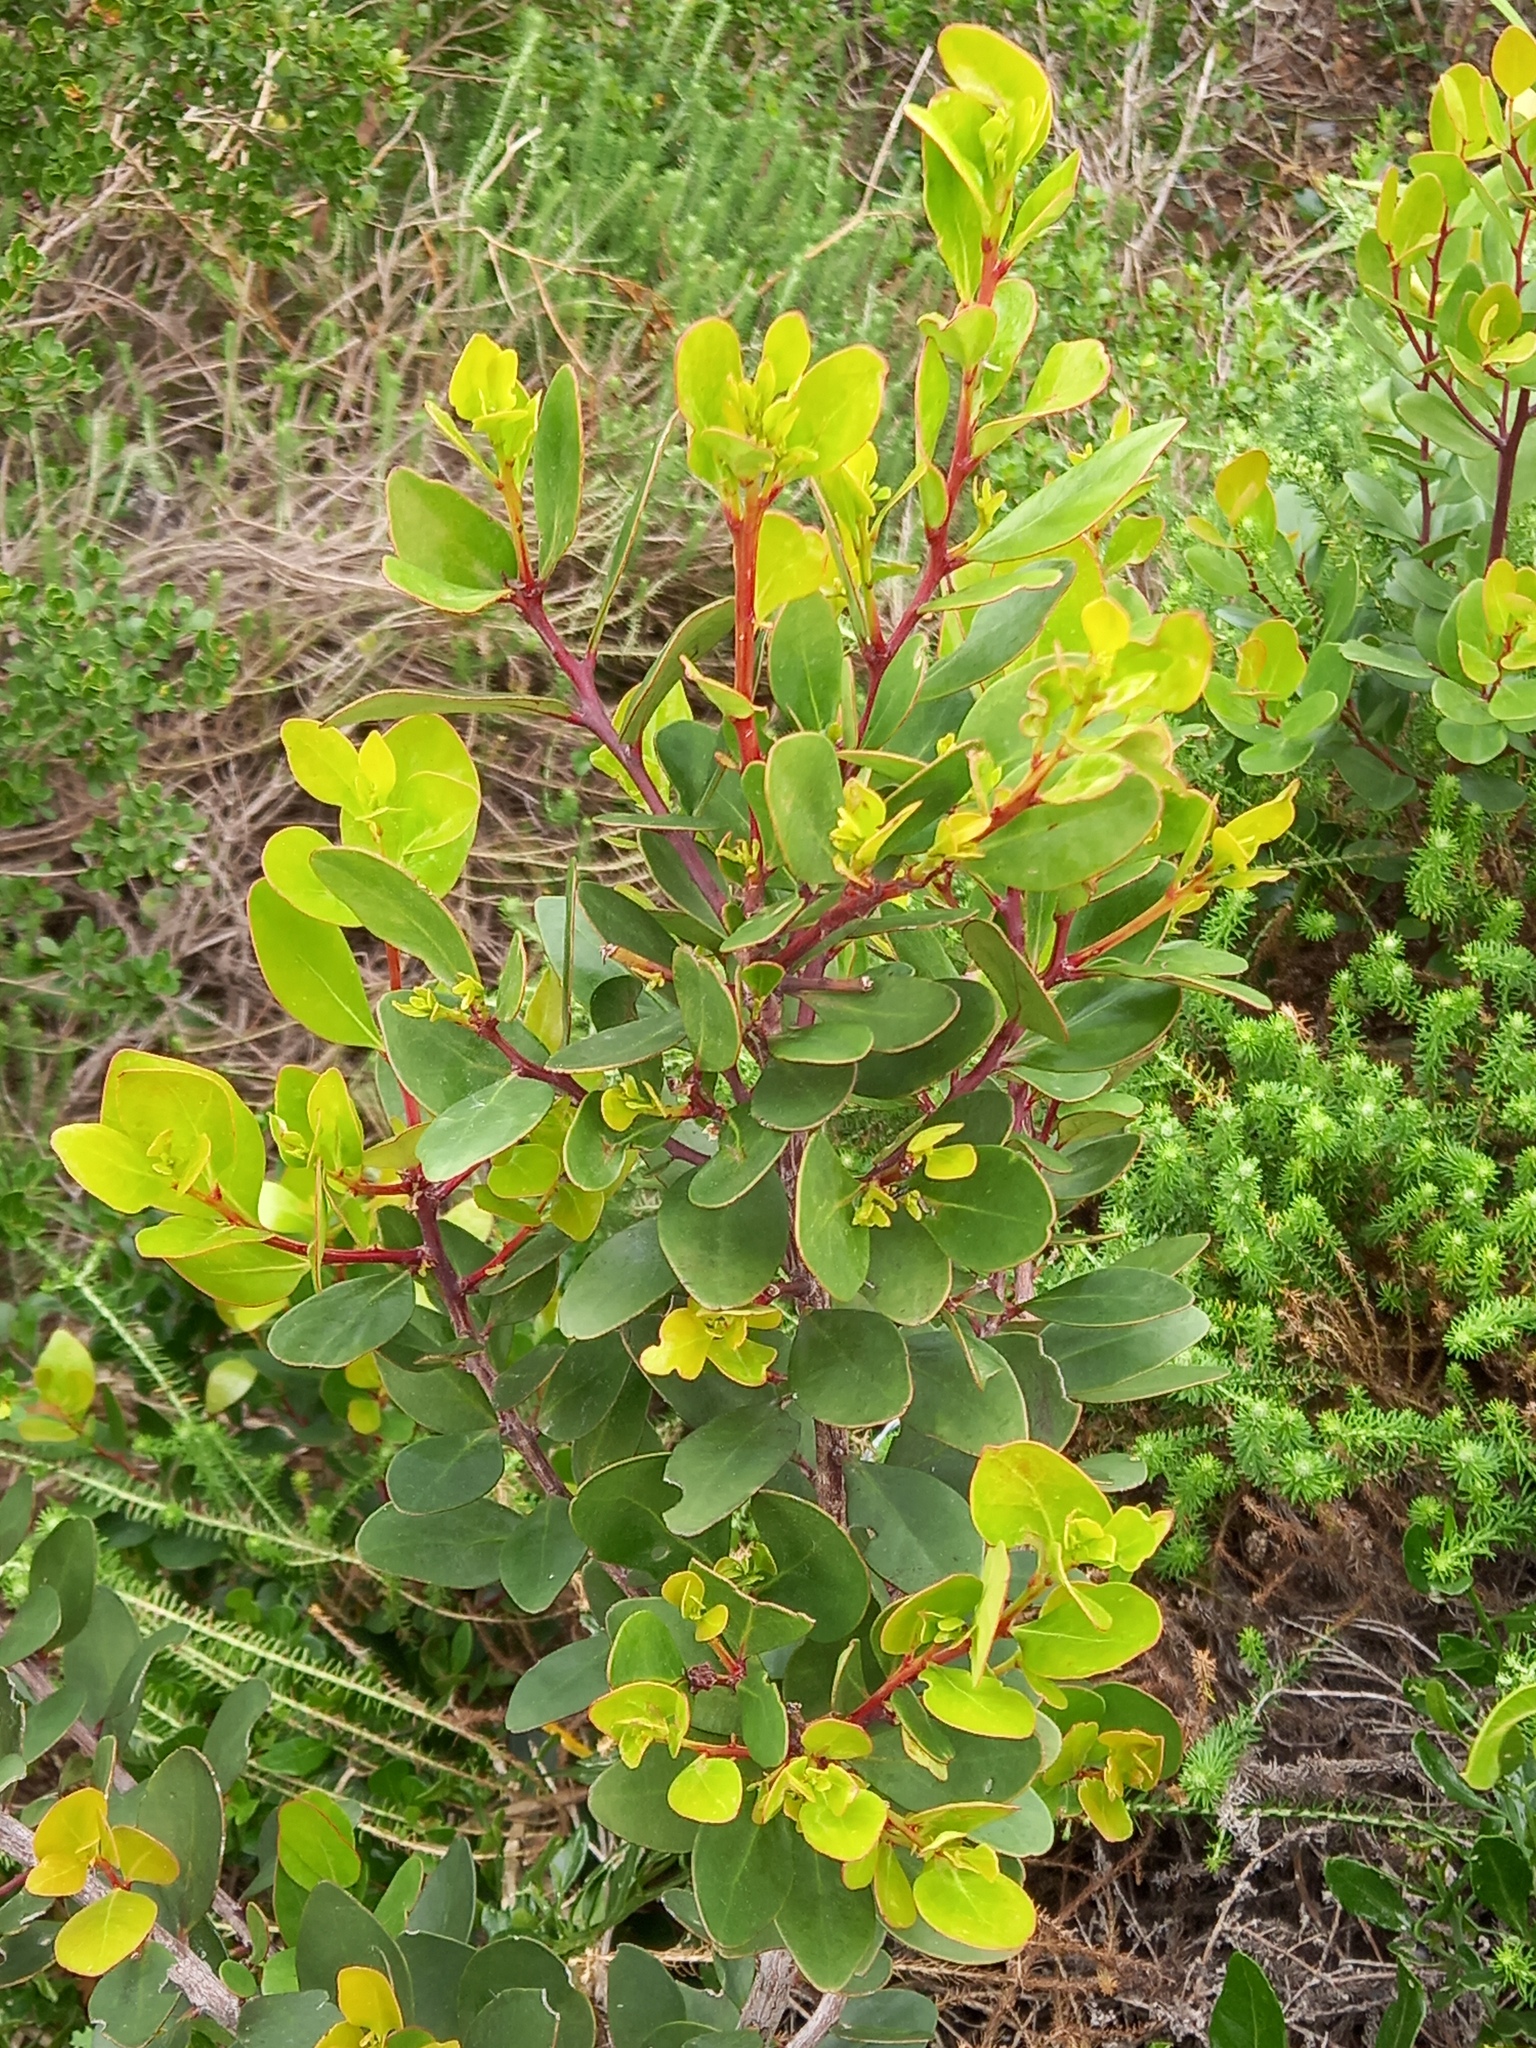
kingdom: Plantae
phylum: Tracheophyta
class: Magnoliopsida
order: Celastrales
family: Celastraceae
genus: Pterocelastrus
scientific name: Pterocelastrus tricuspidatus
